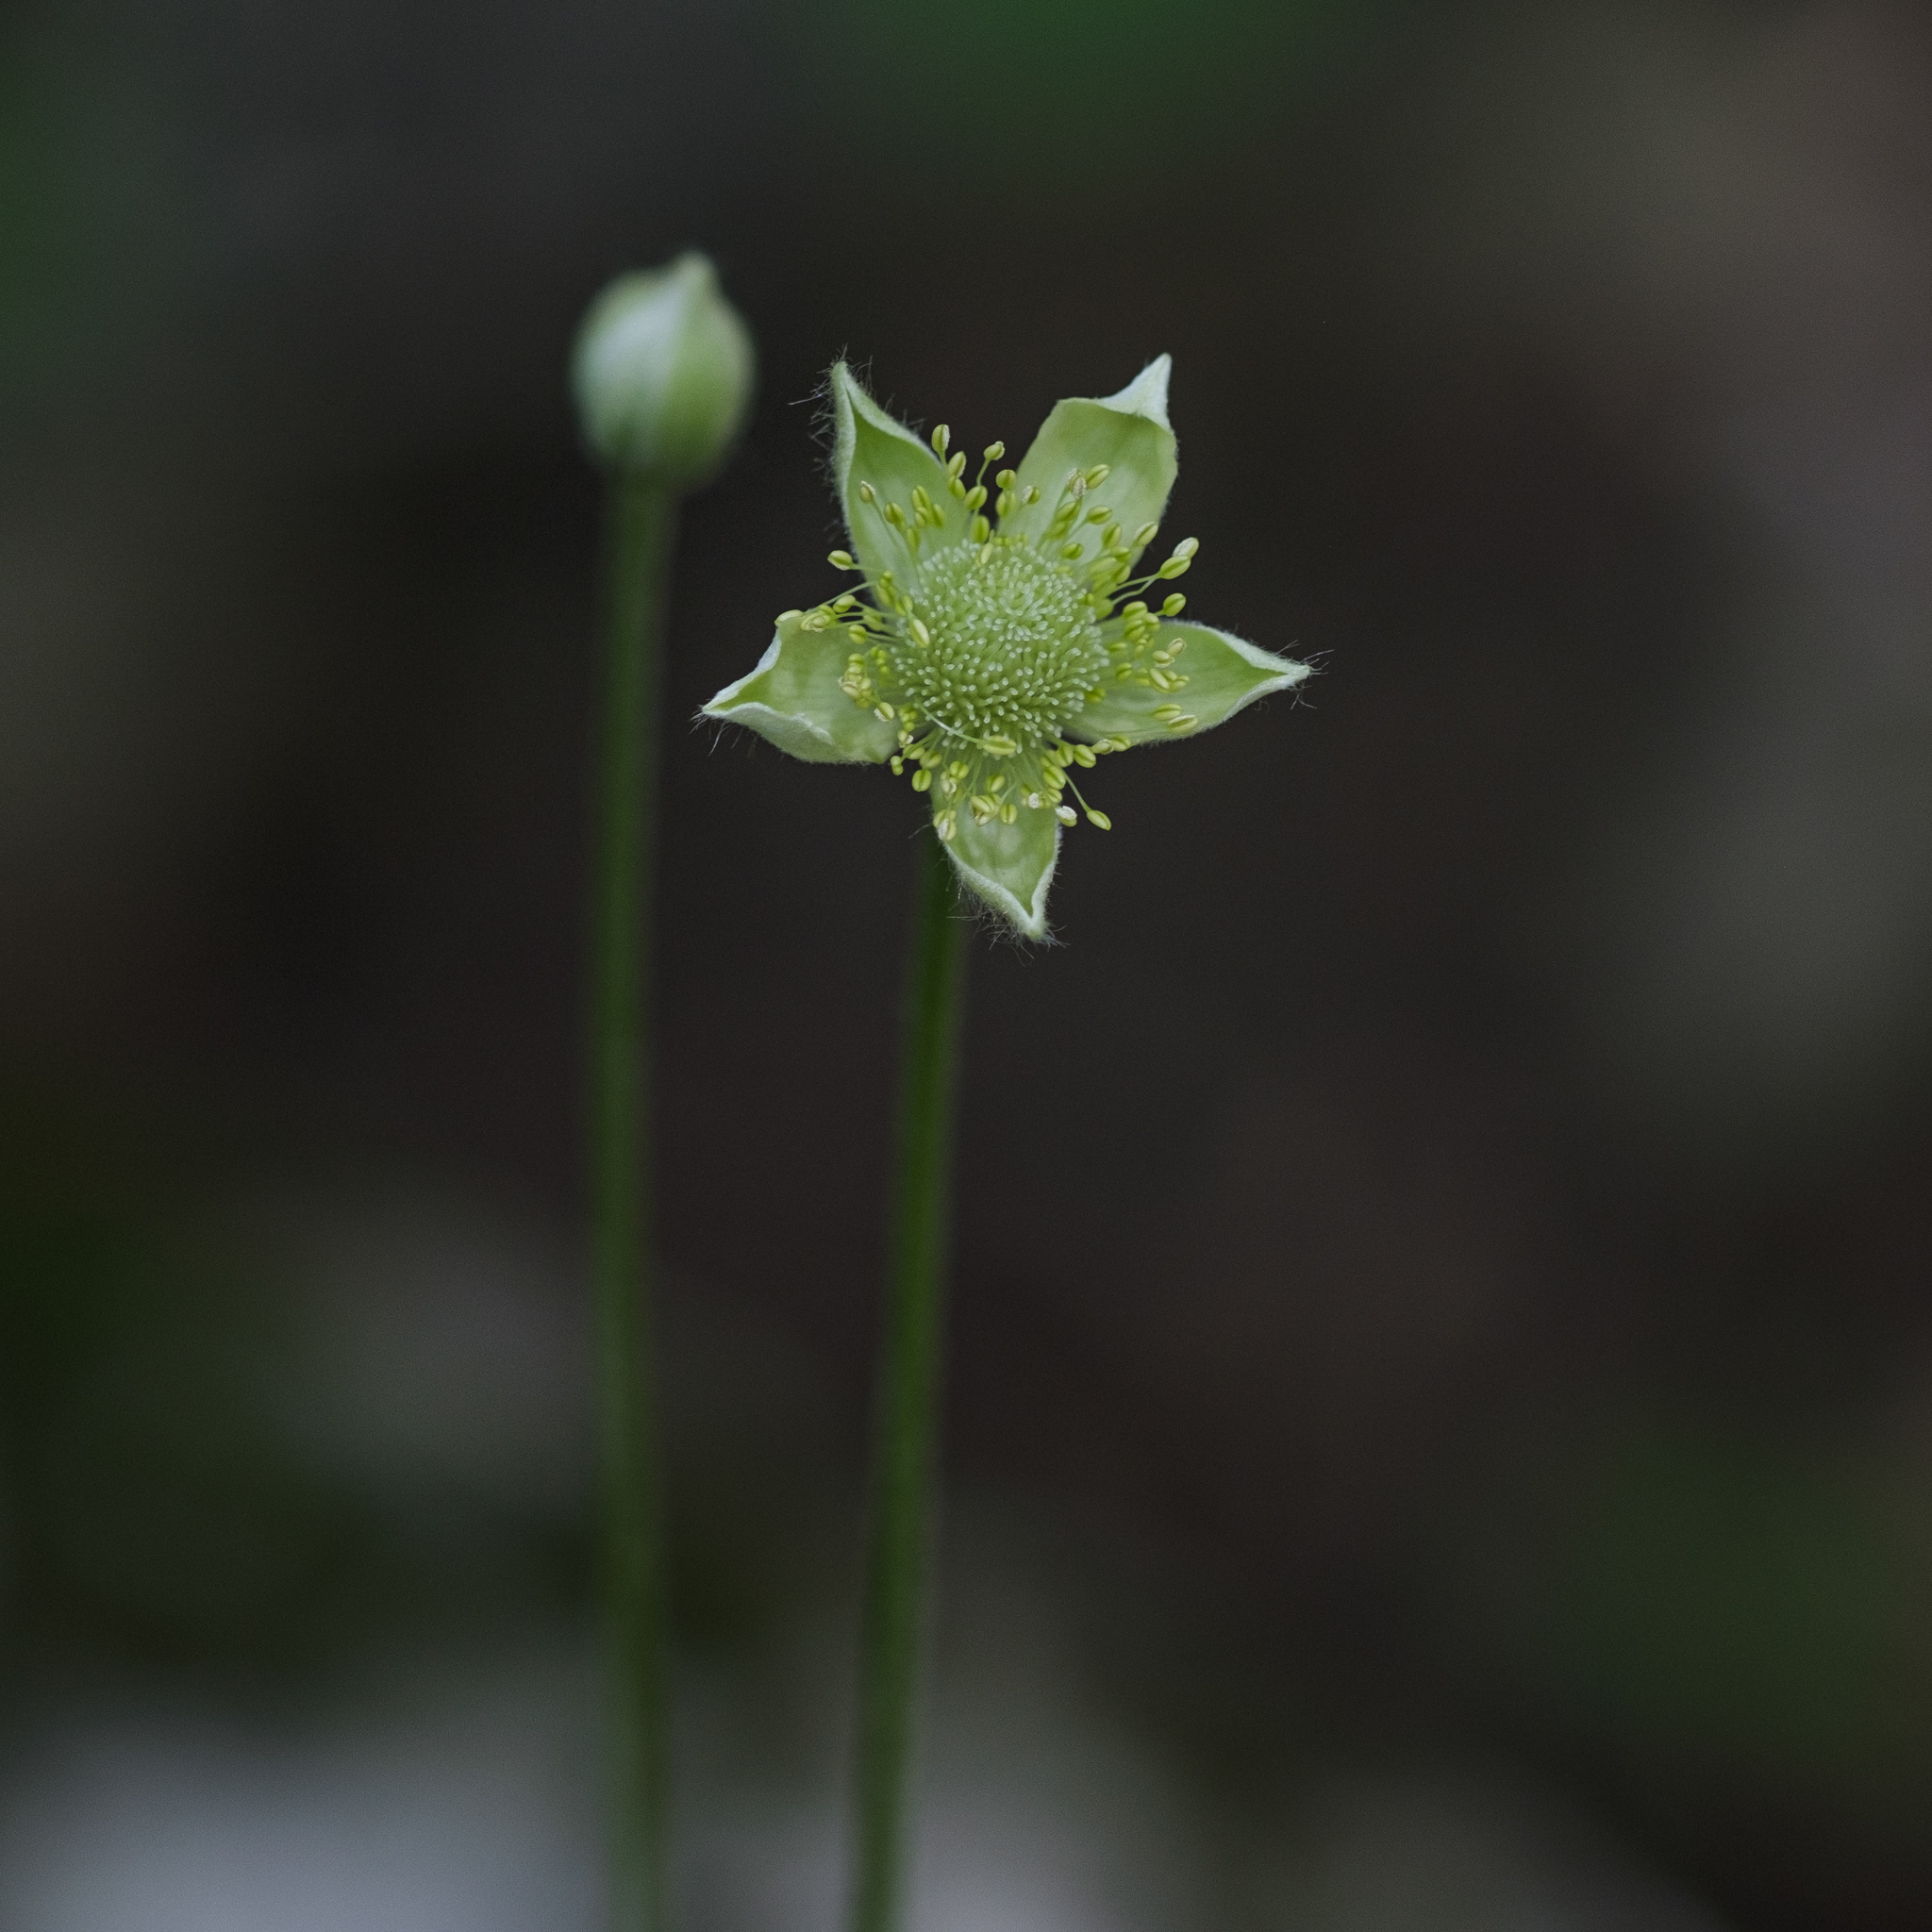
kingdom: Plantae
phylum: Tracheophyta
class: Magnoliopsida
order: Ranunculales
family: Ranunculaceae
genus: Anemone
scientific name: Anemone virginiana
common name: Tall anemone
